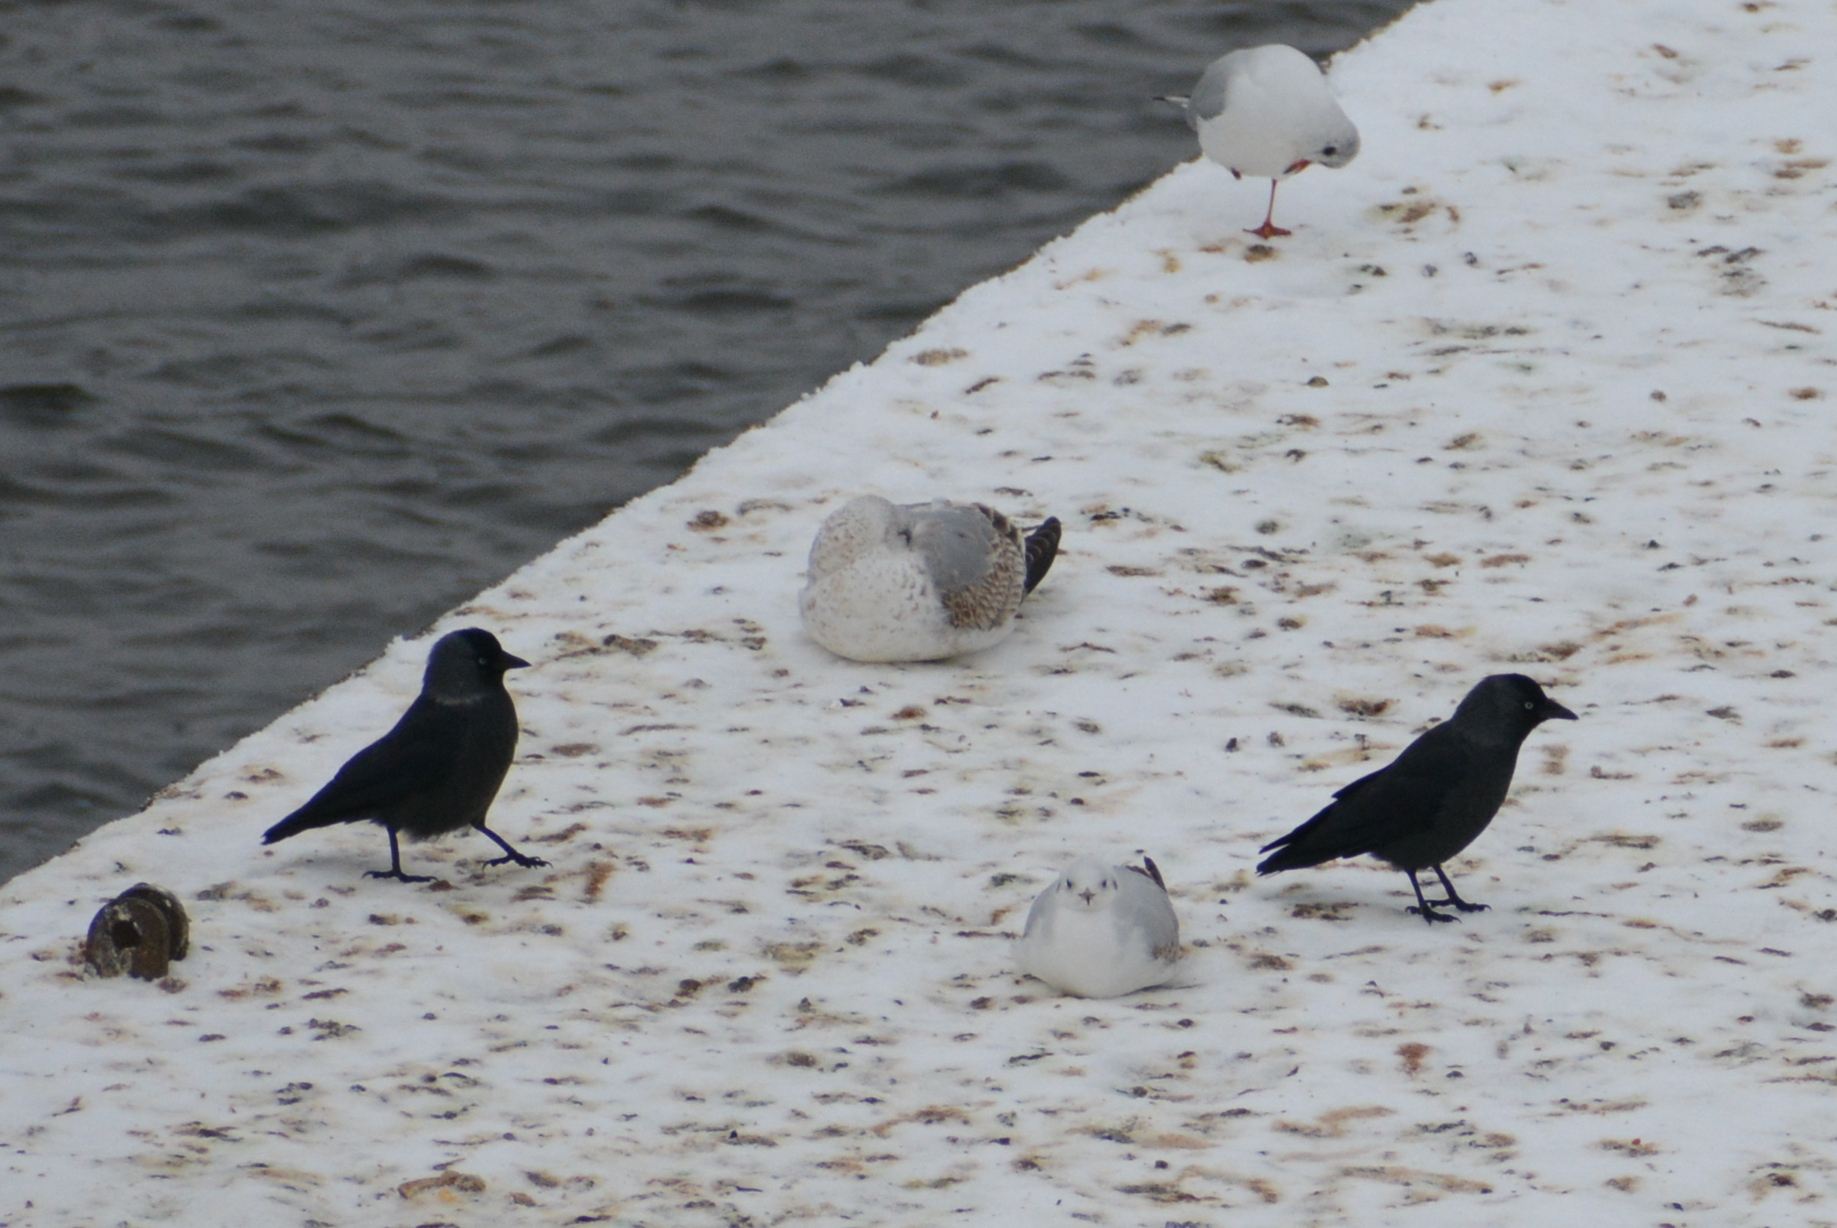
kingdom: Animalia
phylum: Chordata
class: Aves
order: Passeriformes
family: Corvidae
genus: Coloeus
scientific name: Coloeus monedula
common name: Western jackdaw
